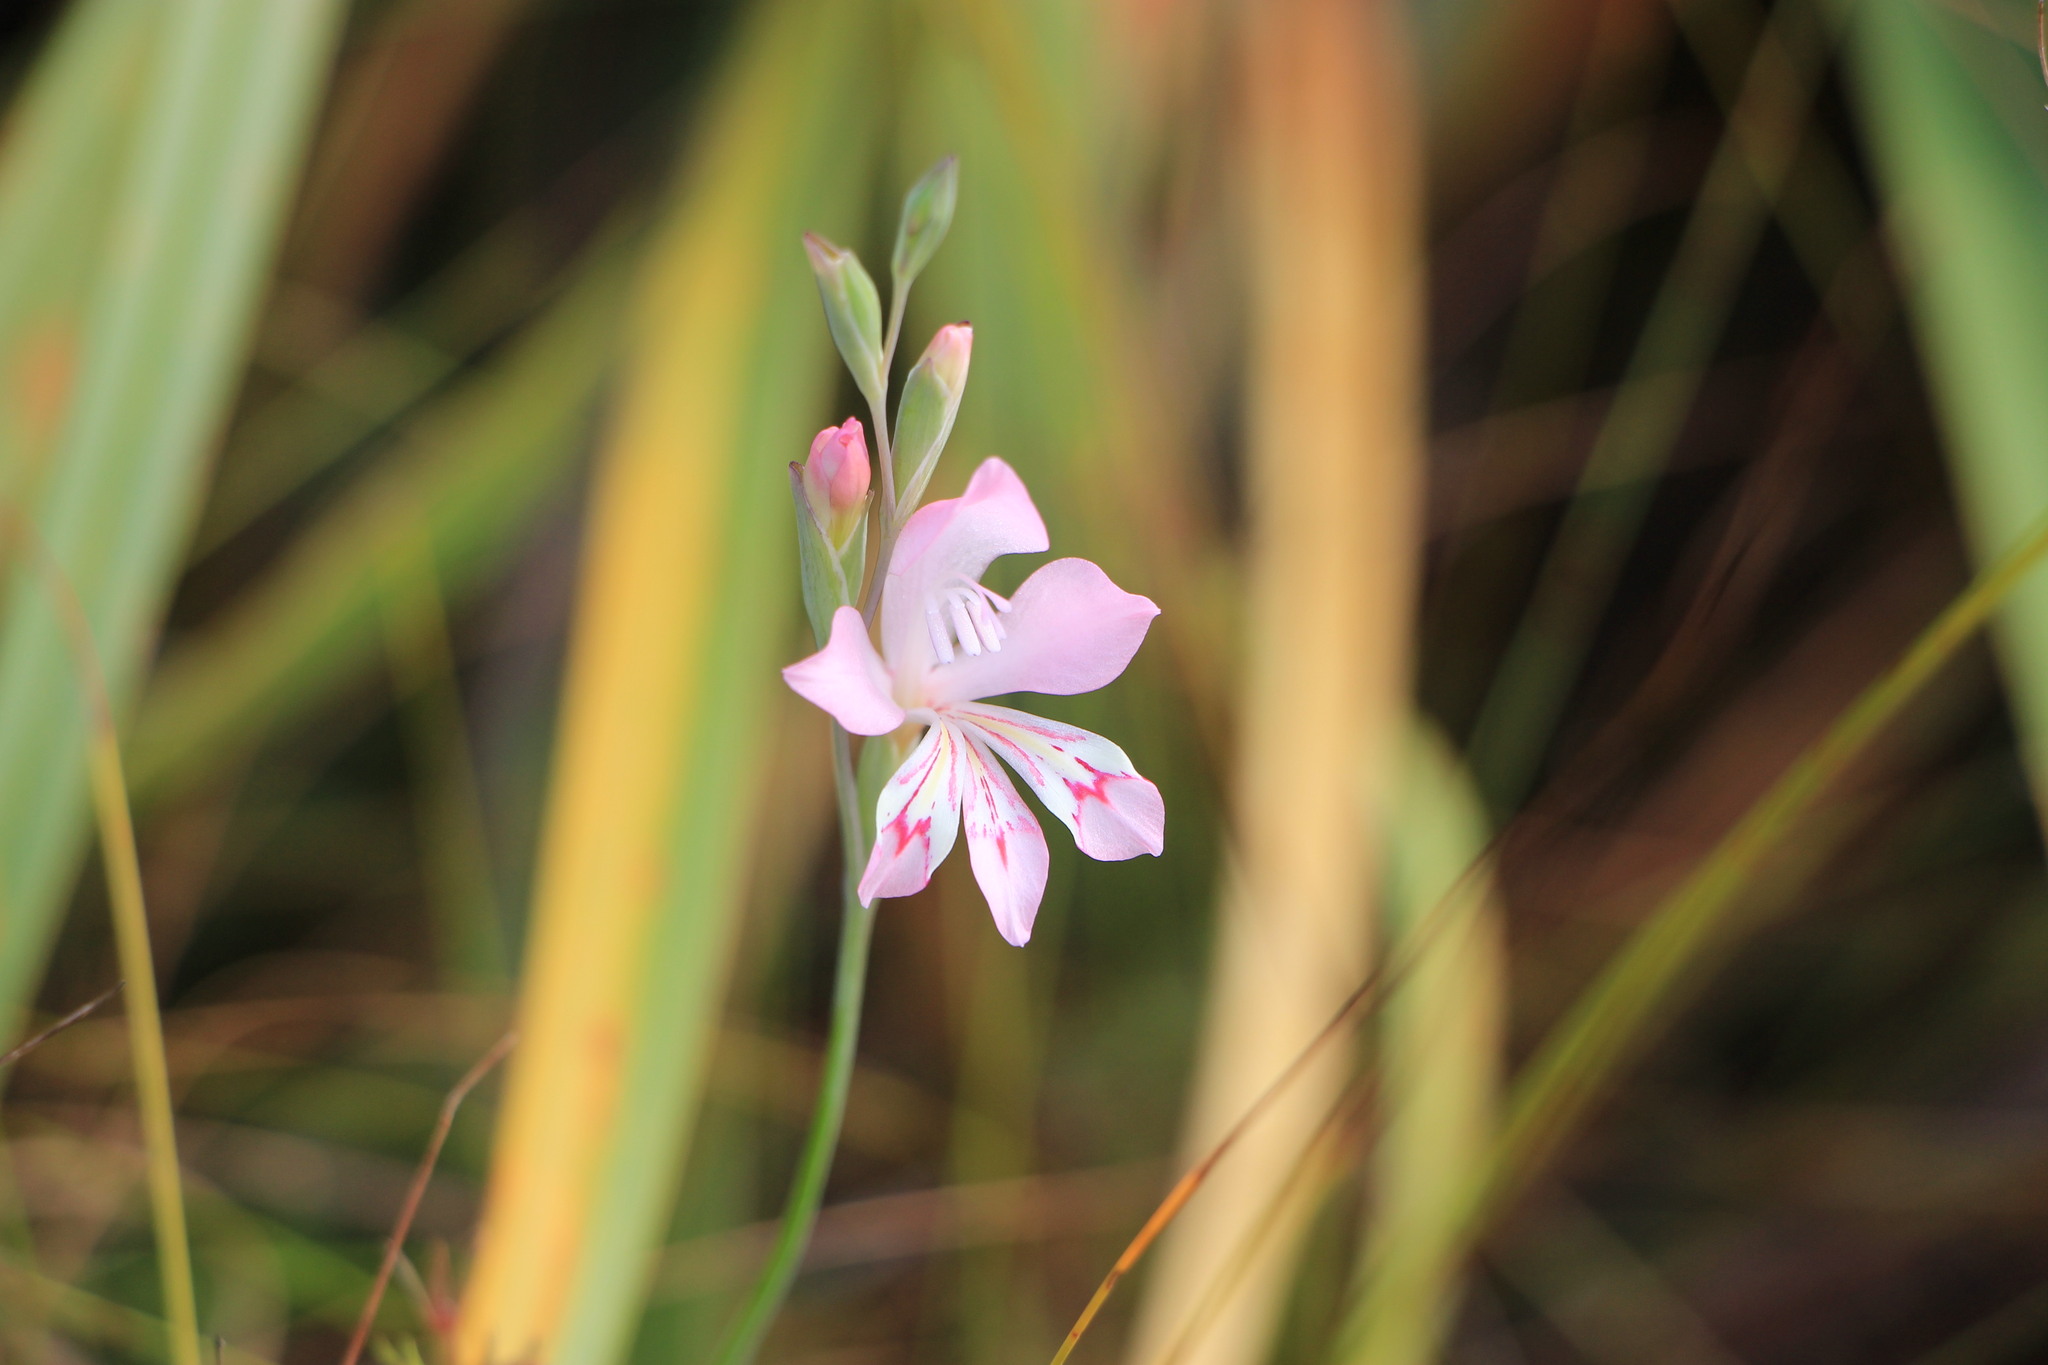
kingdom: Plantae
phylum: Tracheophyta
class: Liliopsida
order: Asparagales
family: Iridaceae
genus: Gladiolus
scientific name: Gladiolus brevifolius
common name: March pypie
